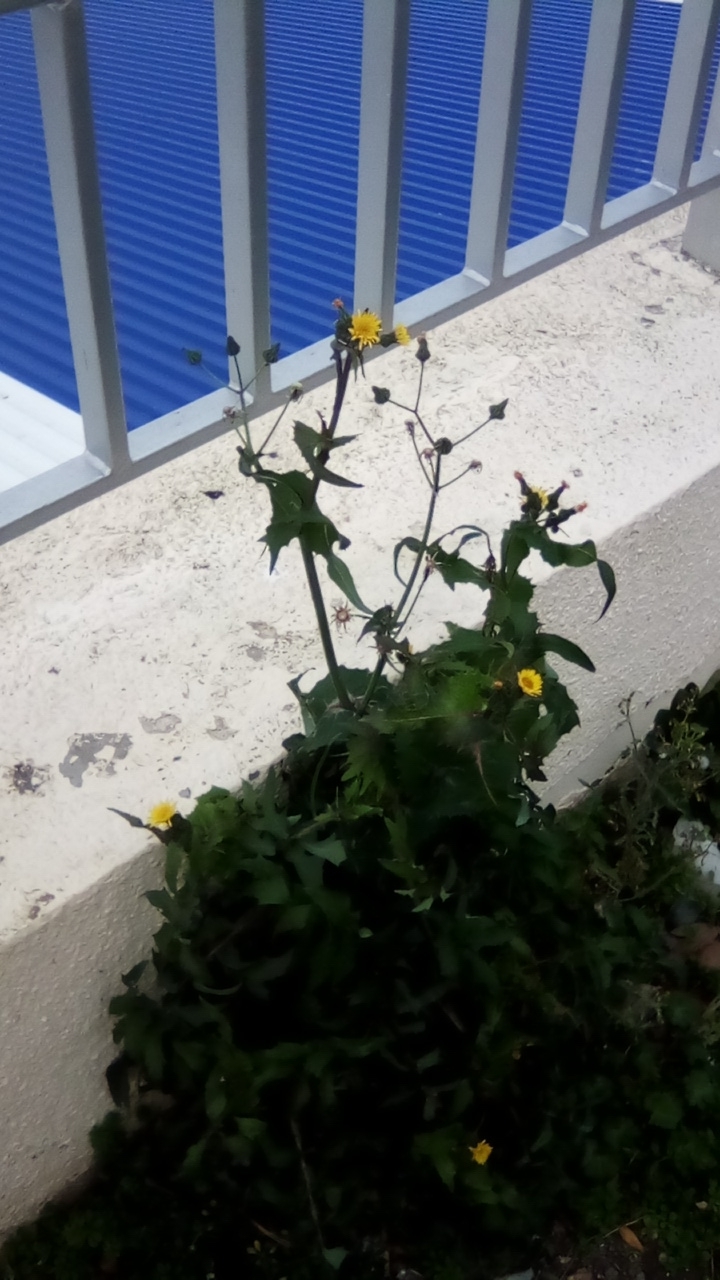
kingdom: Plantae
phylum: Tracheophyta
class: Magnoliopsida
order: Asterales
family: Asteraceae
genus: Sonchus
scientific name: Sonchus oleraceus
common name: Common sowthistle
